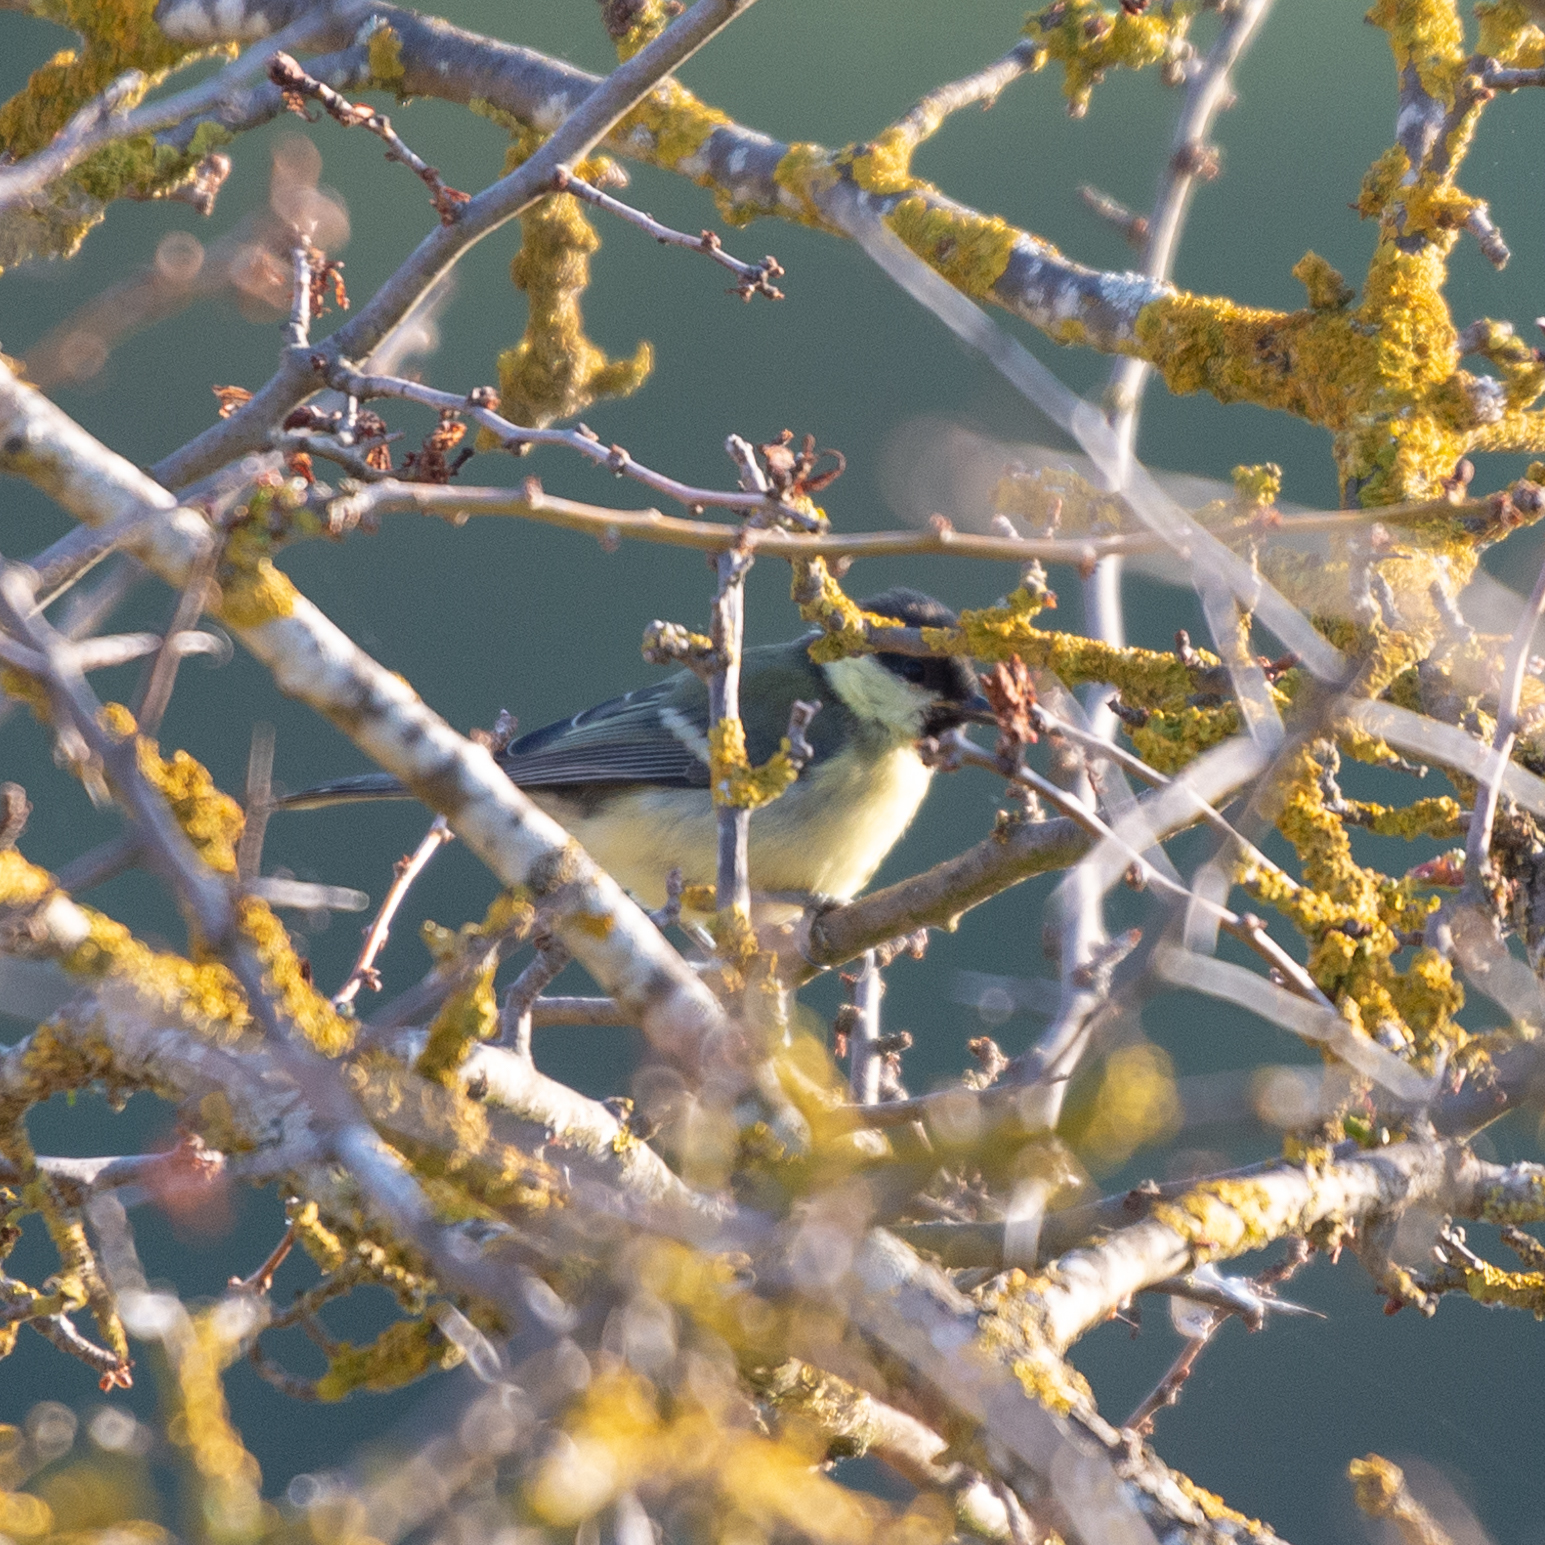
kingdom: Animalia
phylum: Chordata
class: Aves
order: Passeriformes
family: Paridae
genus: Parus
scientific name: Parus major
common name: Great tit
